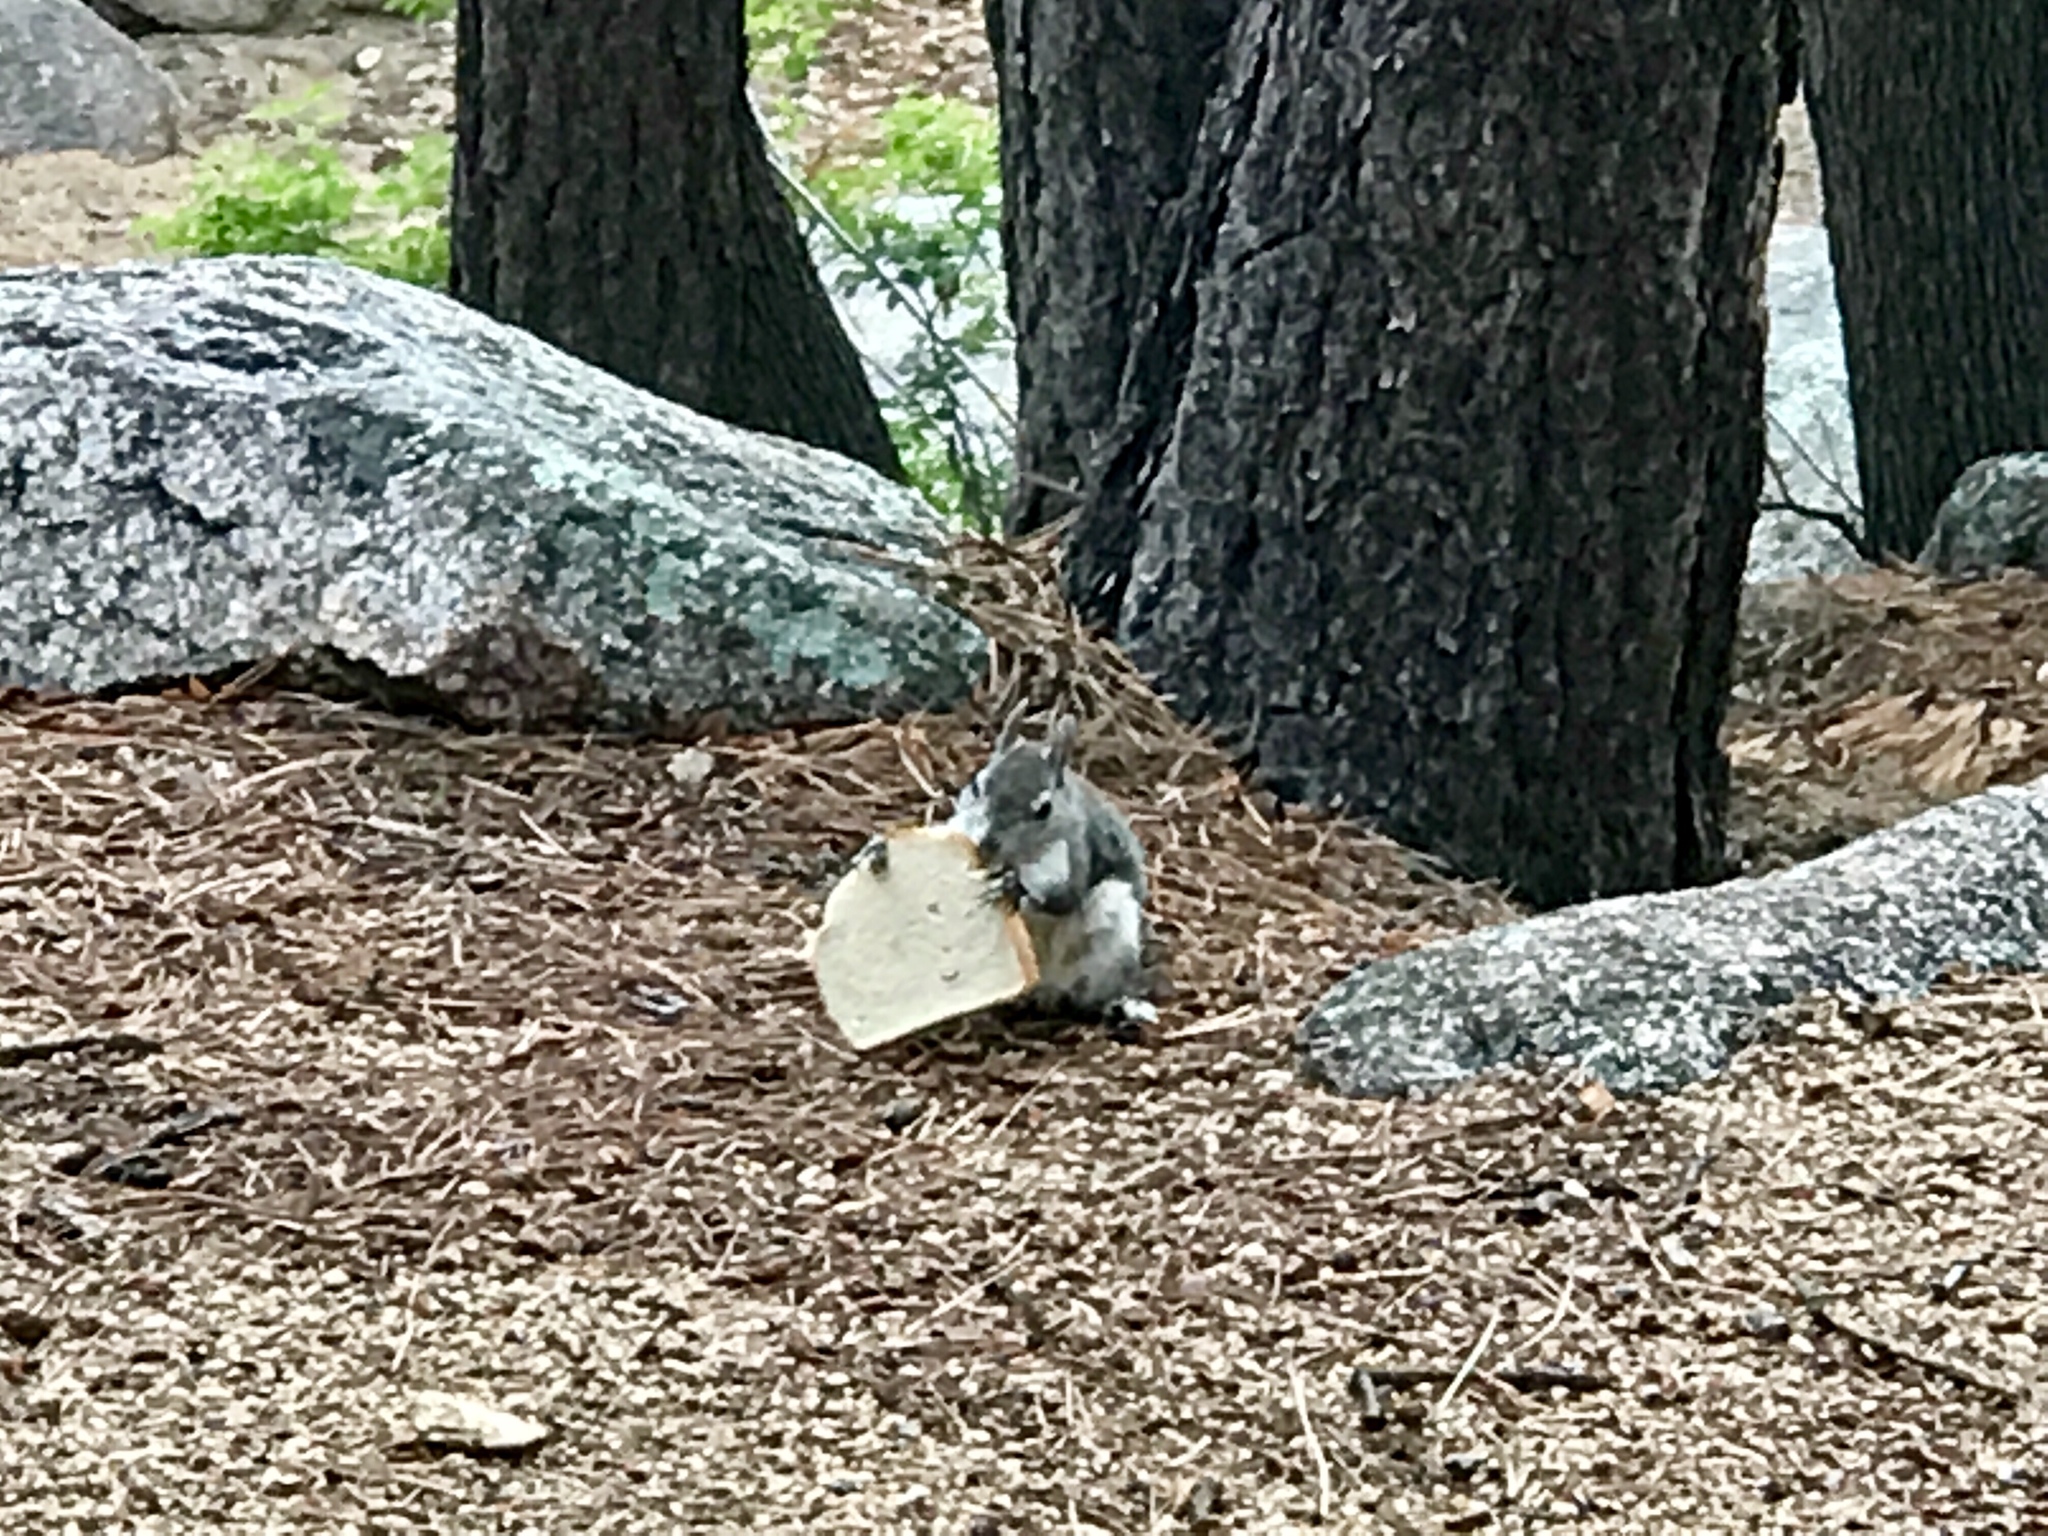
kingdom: Animalia
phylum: Chordata
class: Mammalia
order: Rodentia
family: Sciuridae
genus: Sciurus
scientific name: Sciurus aberti
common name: Abert's squirrel
